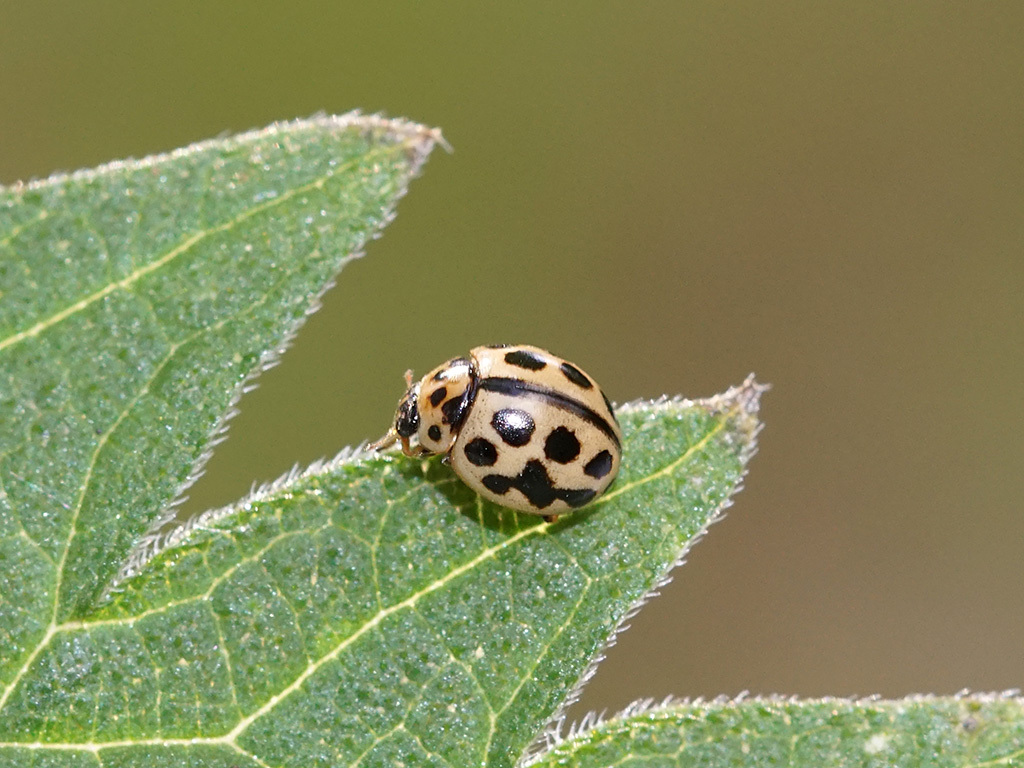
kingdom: Animalia
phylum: Arthropoda
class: Insecta
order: Coleoptera
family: Coccinellidae
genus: Tytthaspis
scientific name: Tytthaspis sedecimpunctata
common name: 16-spot ladybird
